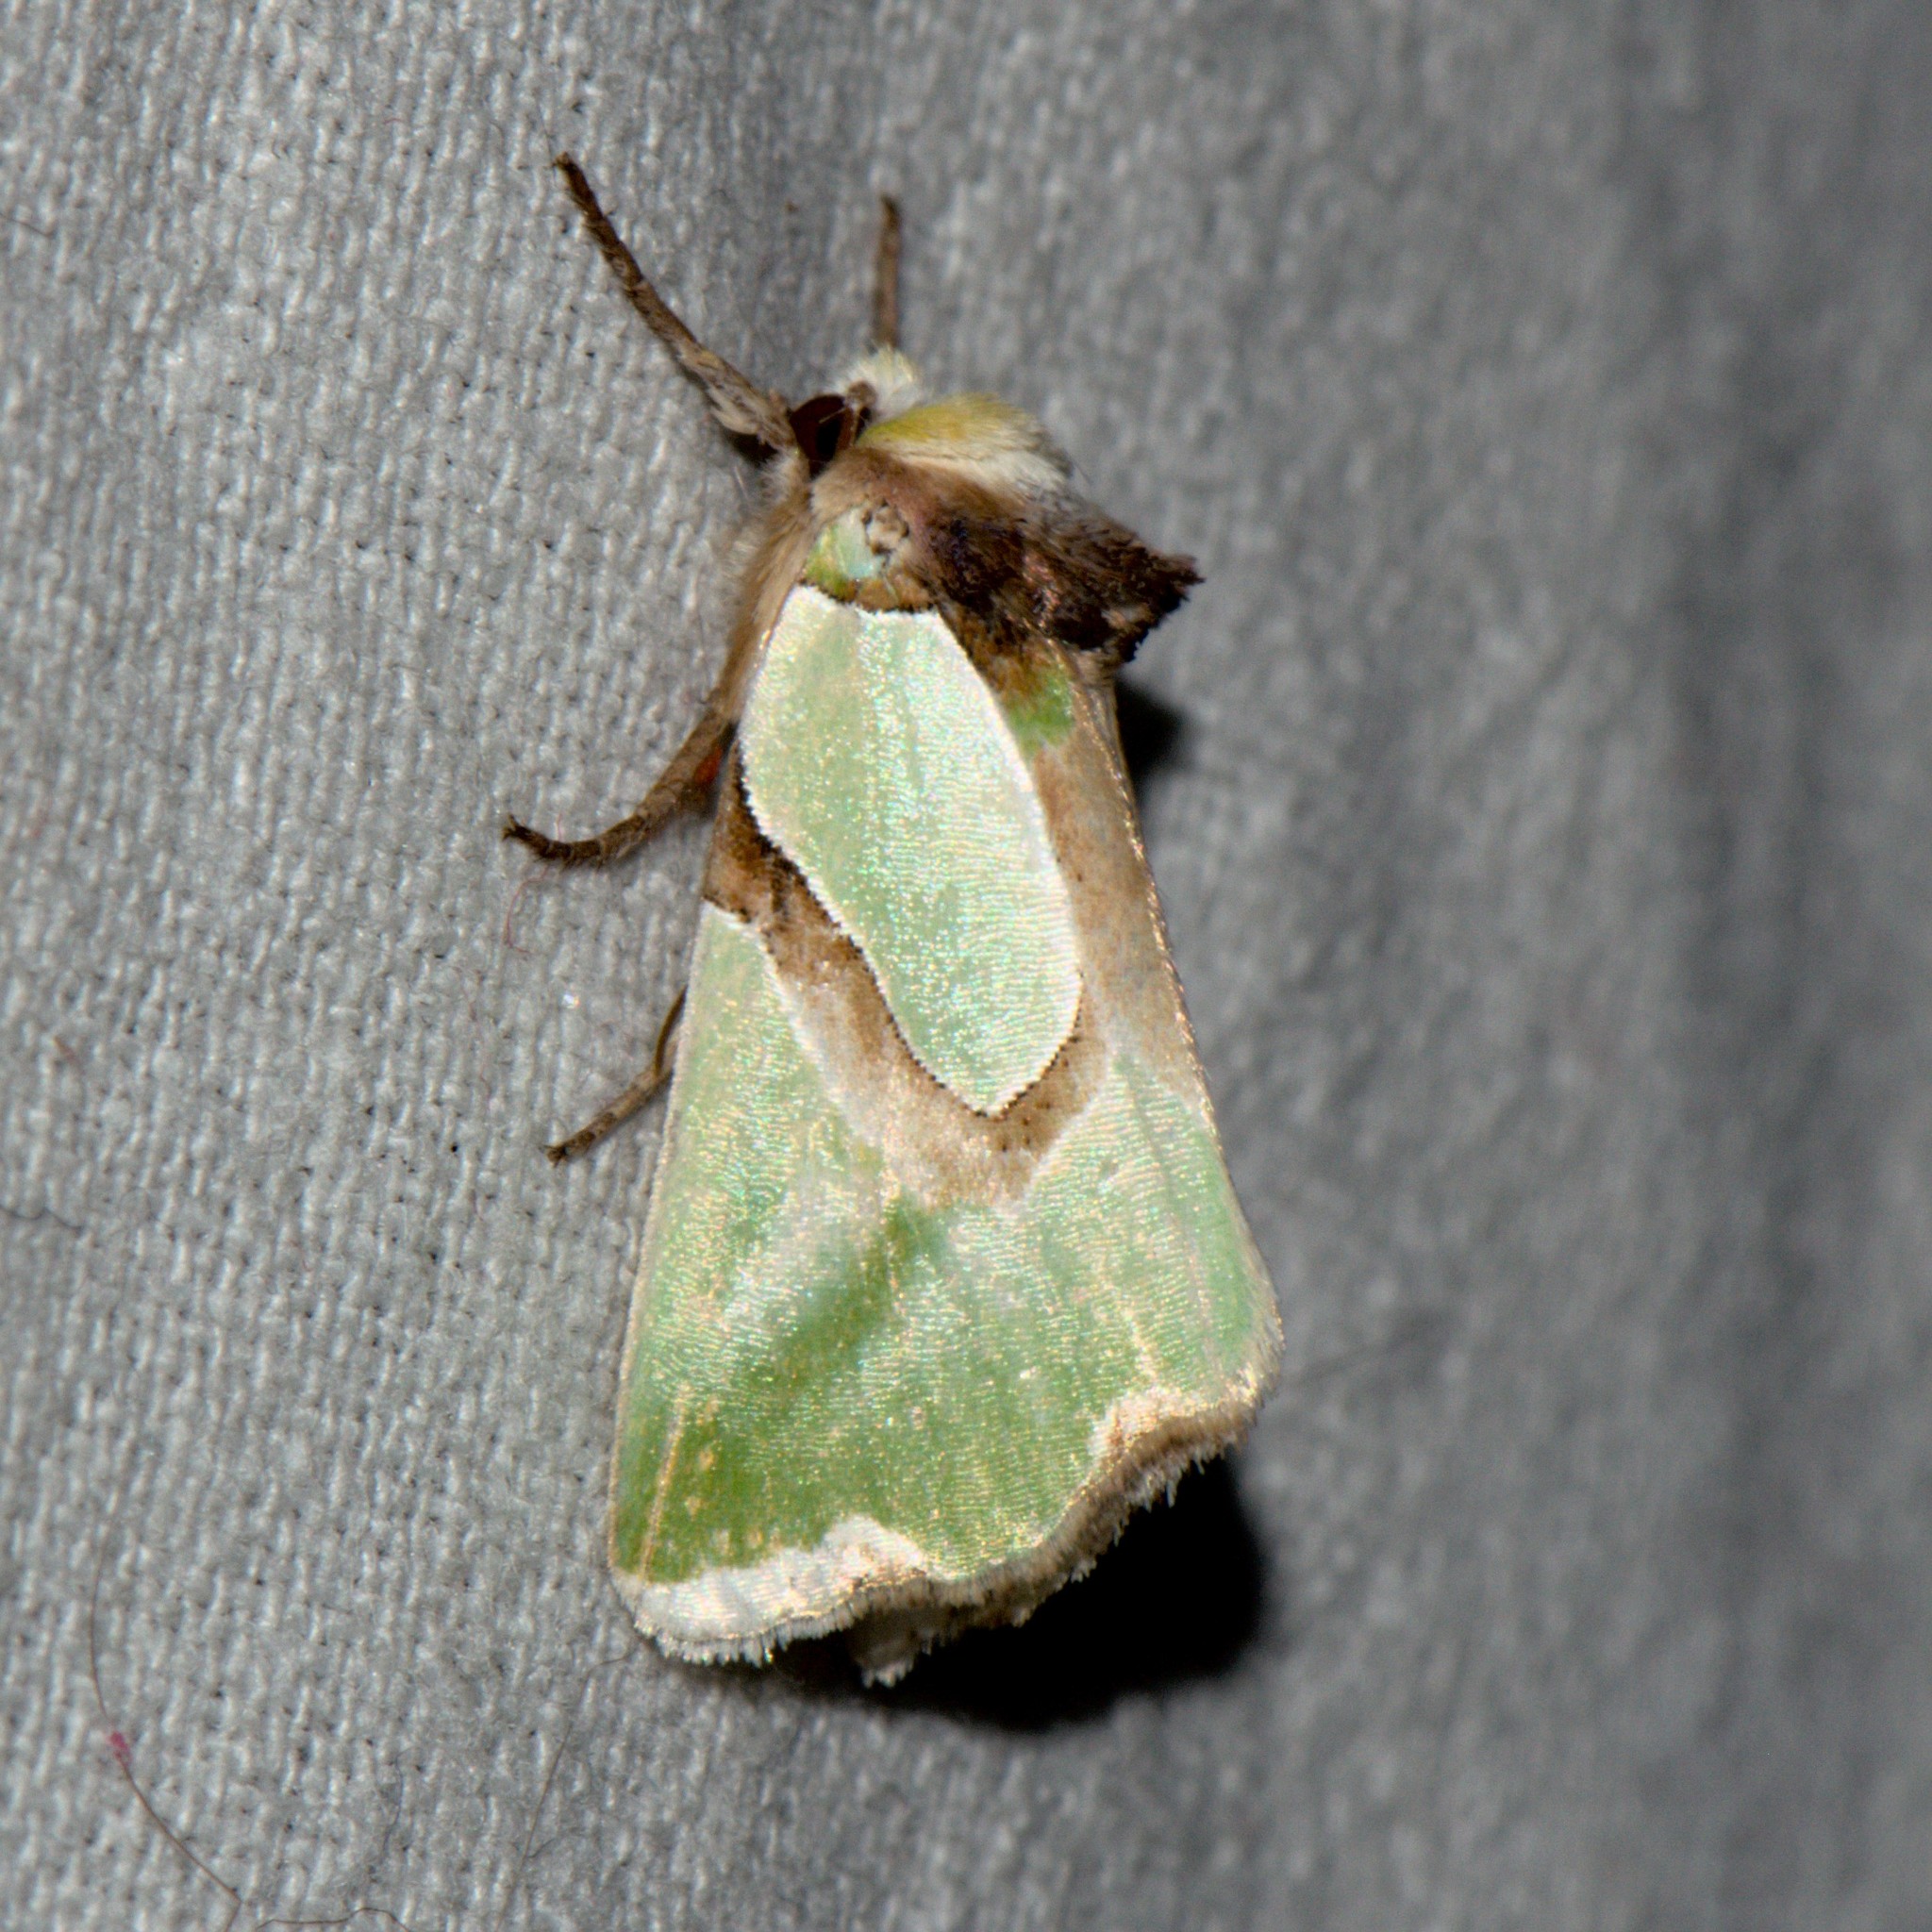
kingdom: Animalia
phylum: Arthropoda
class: Insecta
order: Lepidoptera
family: Noctuidae
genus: Nacna
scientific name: Nacna pulchripicta
